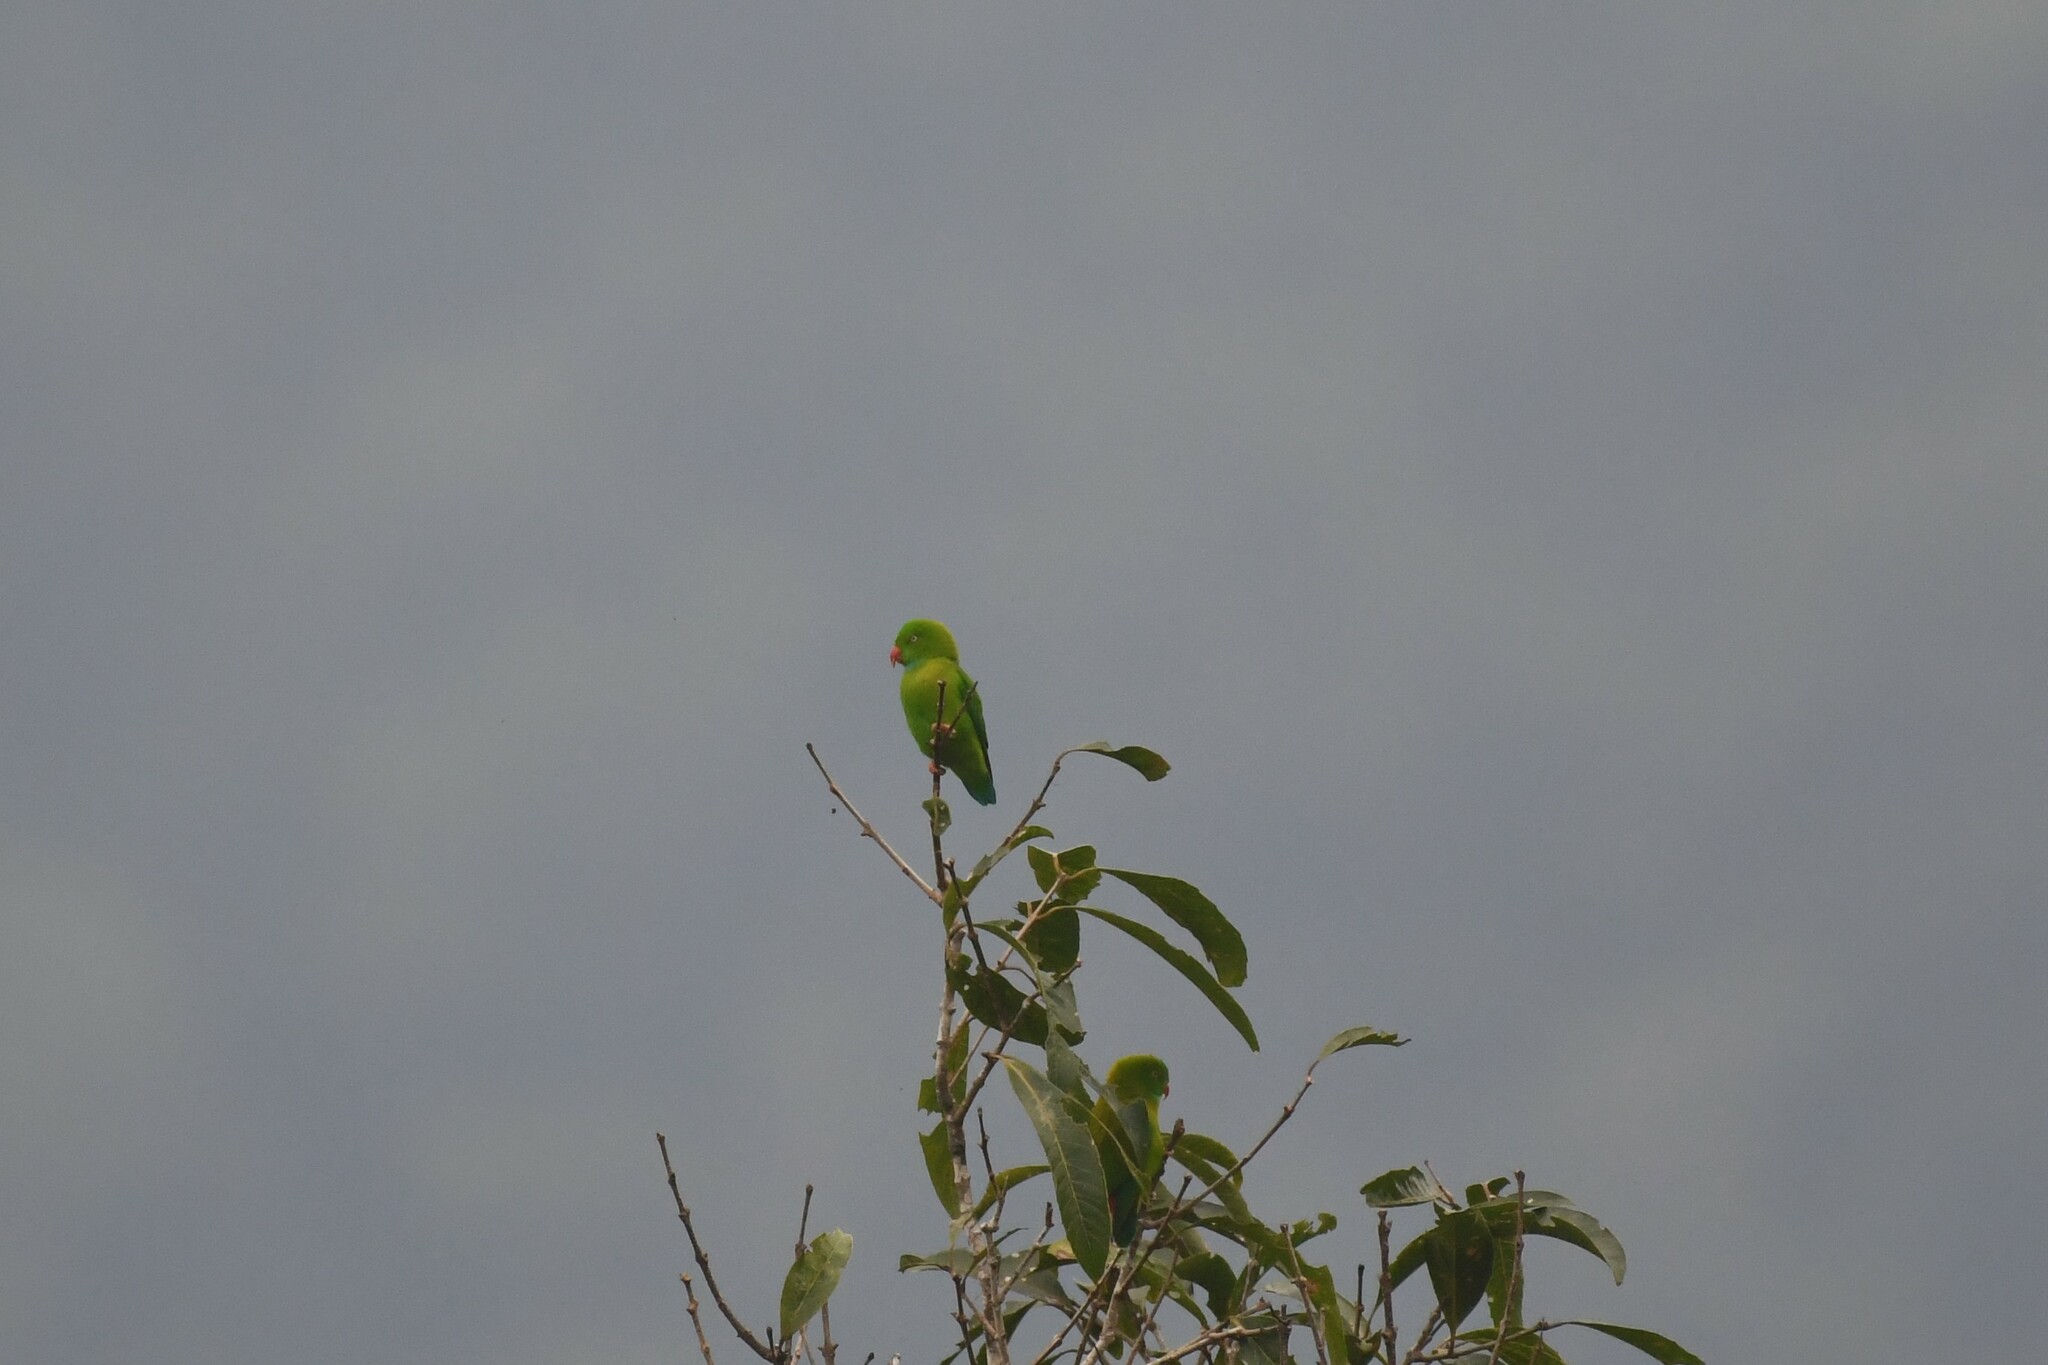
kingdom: Animalia
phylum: Chordata
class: Aves
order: Psittaciformes
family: Psittacidae
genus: Loriculus
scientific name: Loriculus vernalis
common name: Vernal hanging parrot
